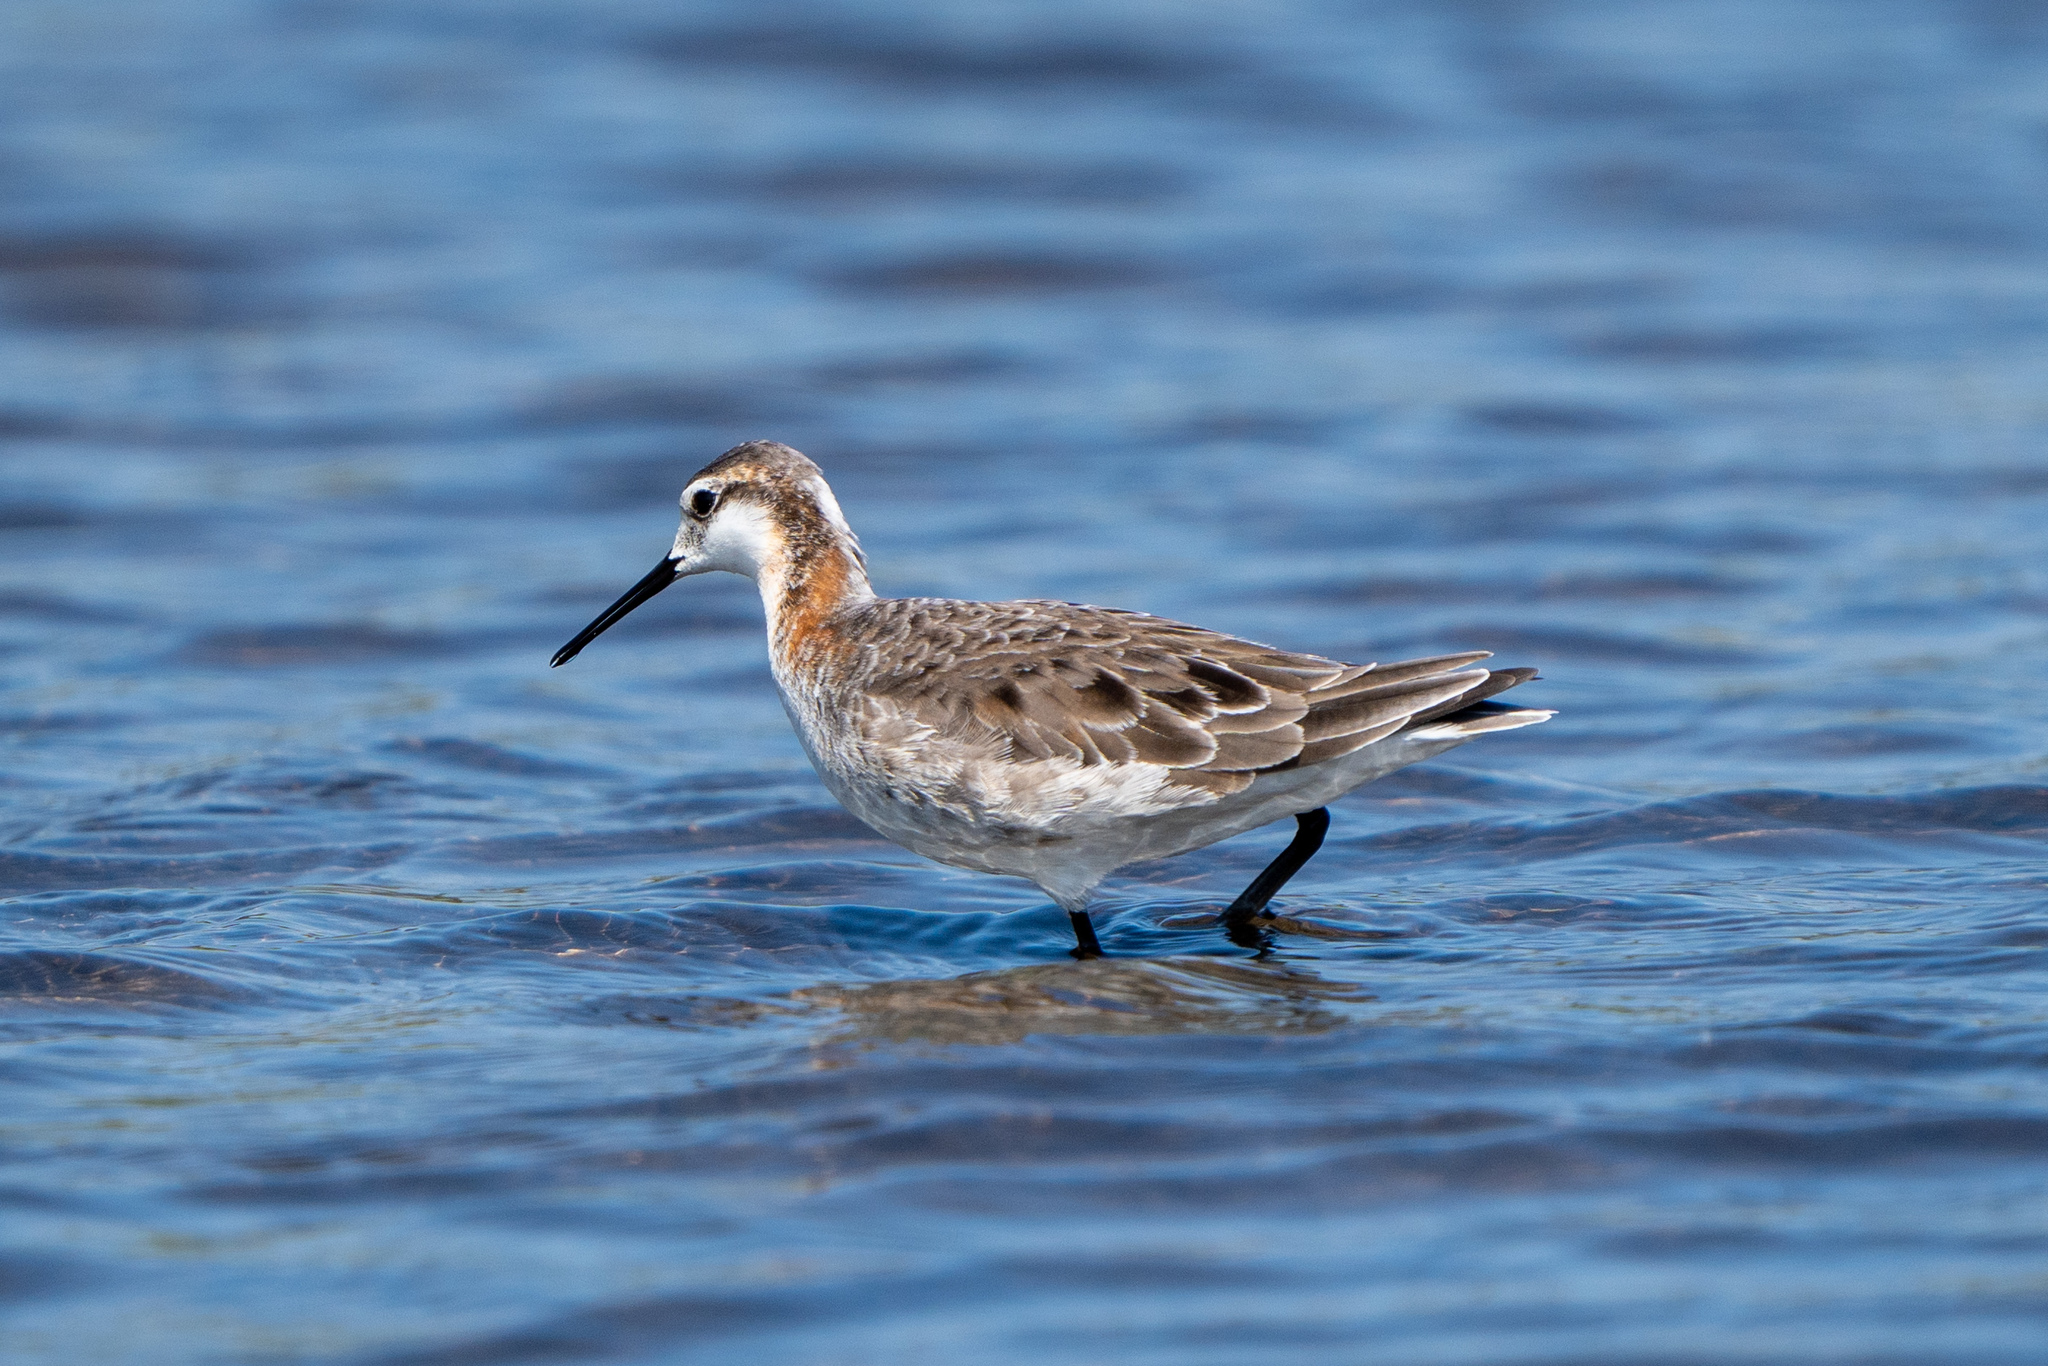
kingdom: Animalia
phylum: Chordata
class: Aves
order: Charadriiformes
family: Scolopacidae
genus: Phalaropus
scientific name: Phalaropus tricolor
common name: Wilson's phalarope
